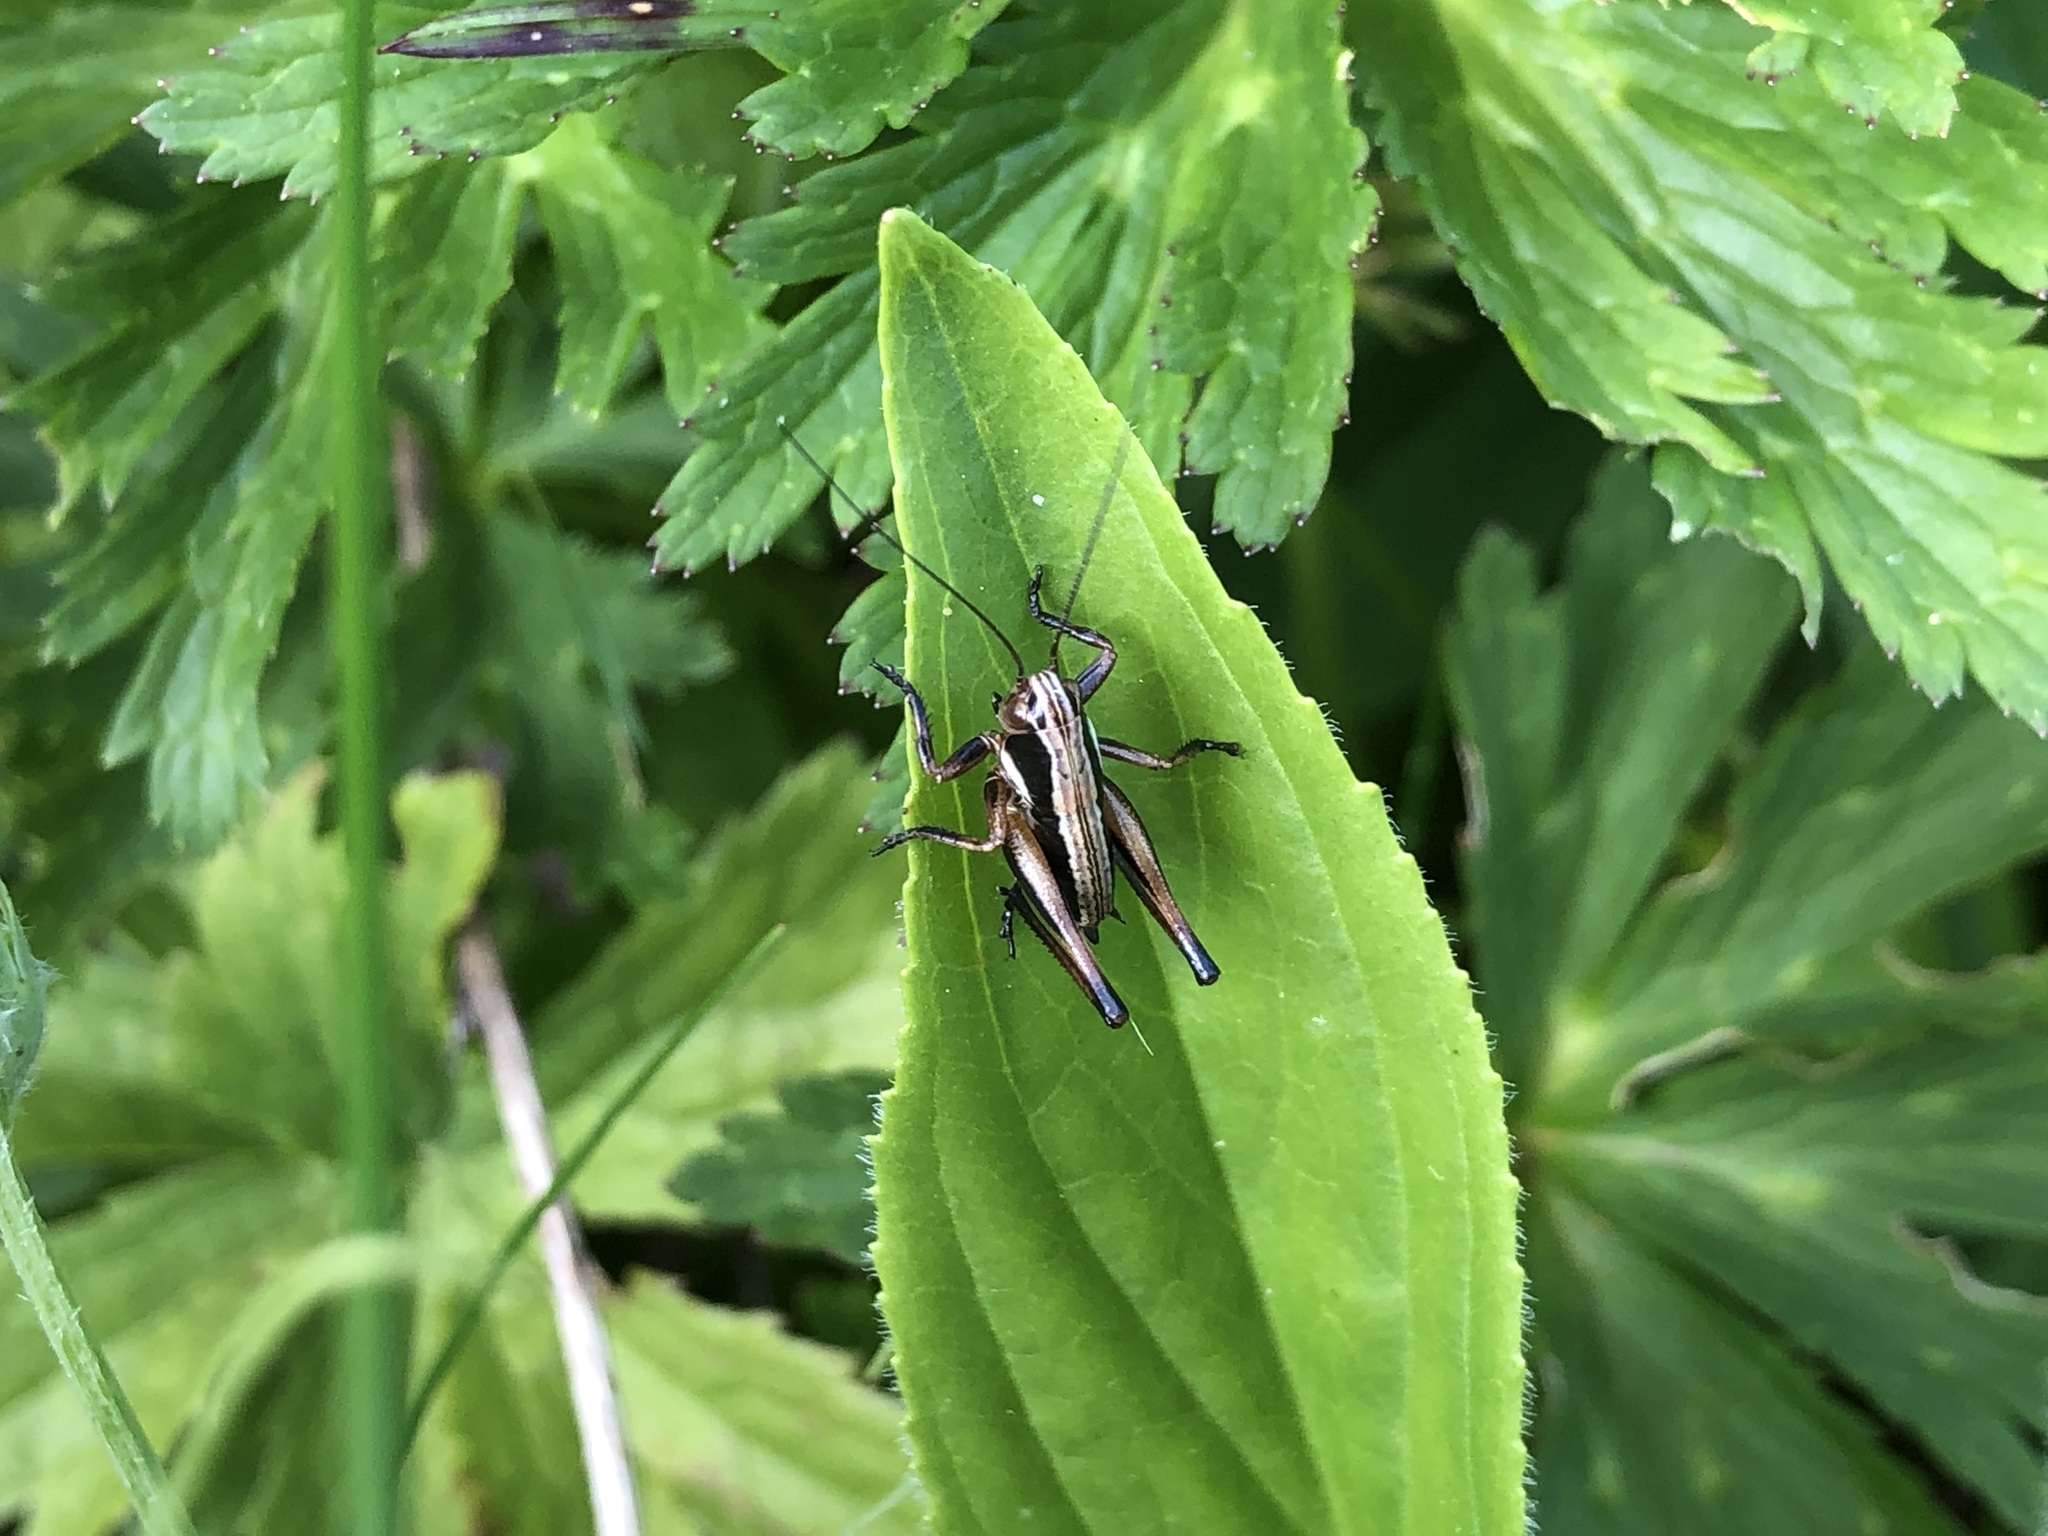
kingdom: Animalia
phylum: Arthropoda
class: Insecta
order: Orthoptera
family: Tettigoniidae
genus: Pholidoptera
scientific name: Pholidoptera aptera
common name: Alpine dark bush-cricket
